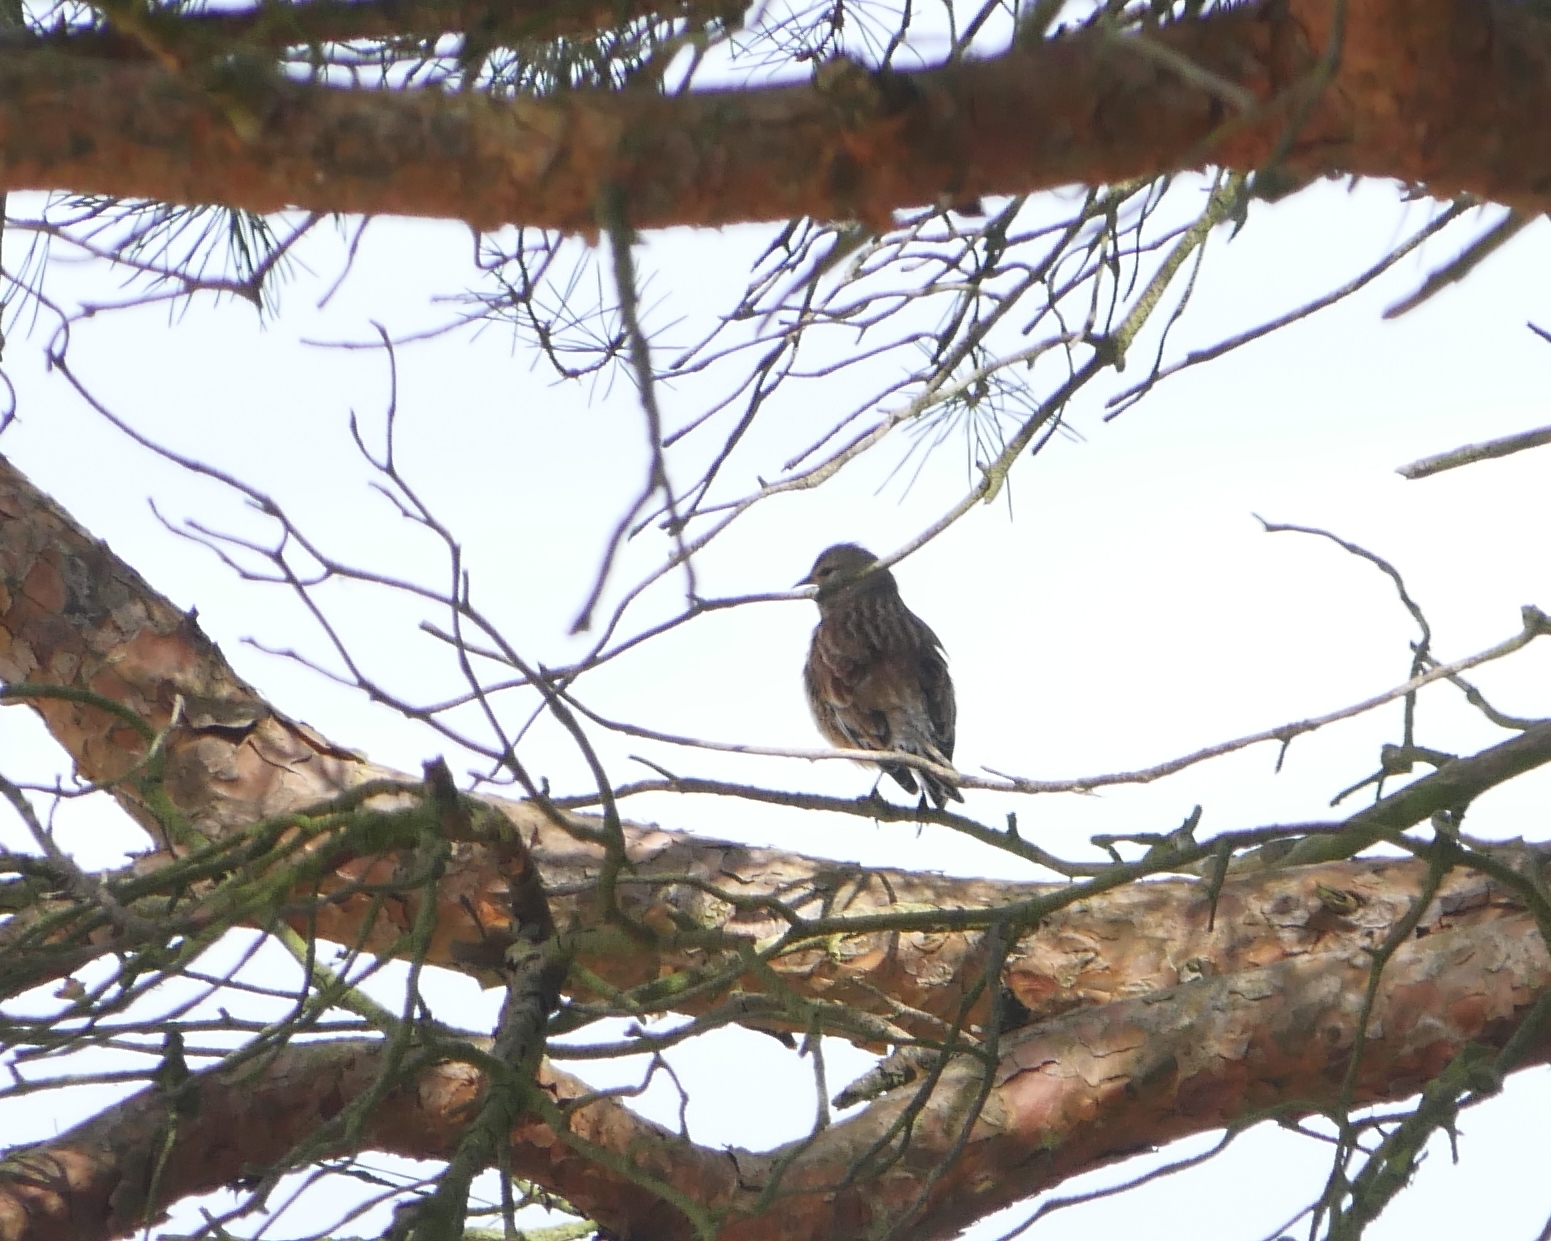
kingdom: Animalia
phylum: Chordata
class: Aves
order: Passeriformes
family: Fringillidae
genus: Linaria
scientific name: Linaria cannabina
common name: Common linnet
